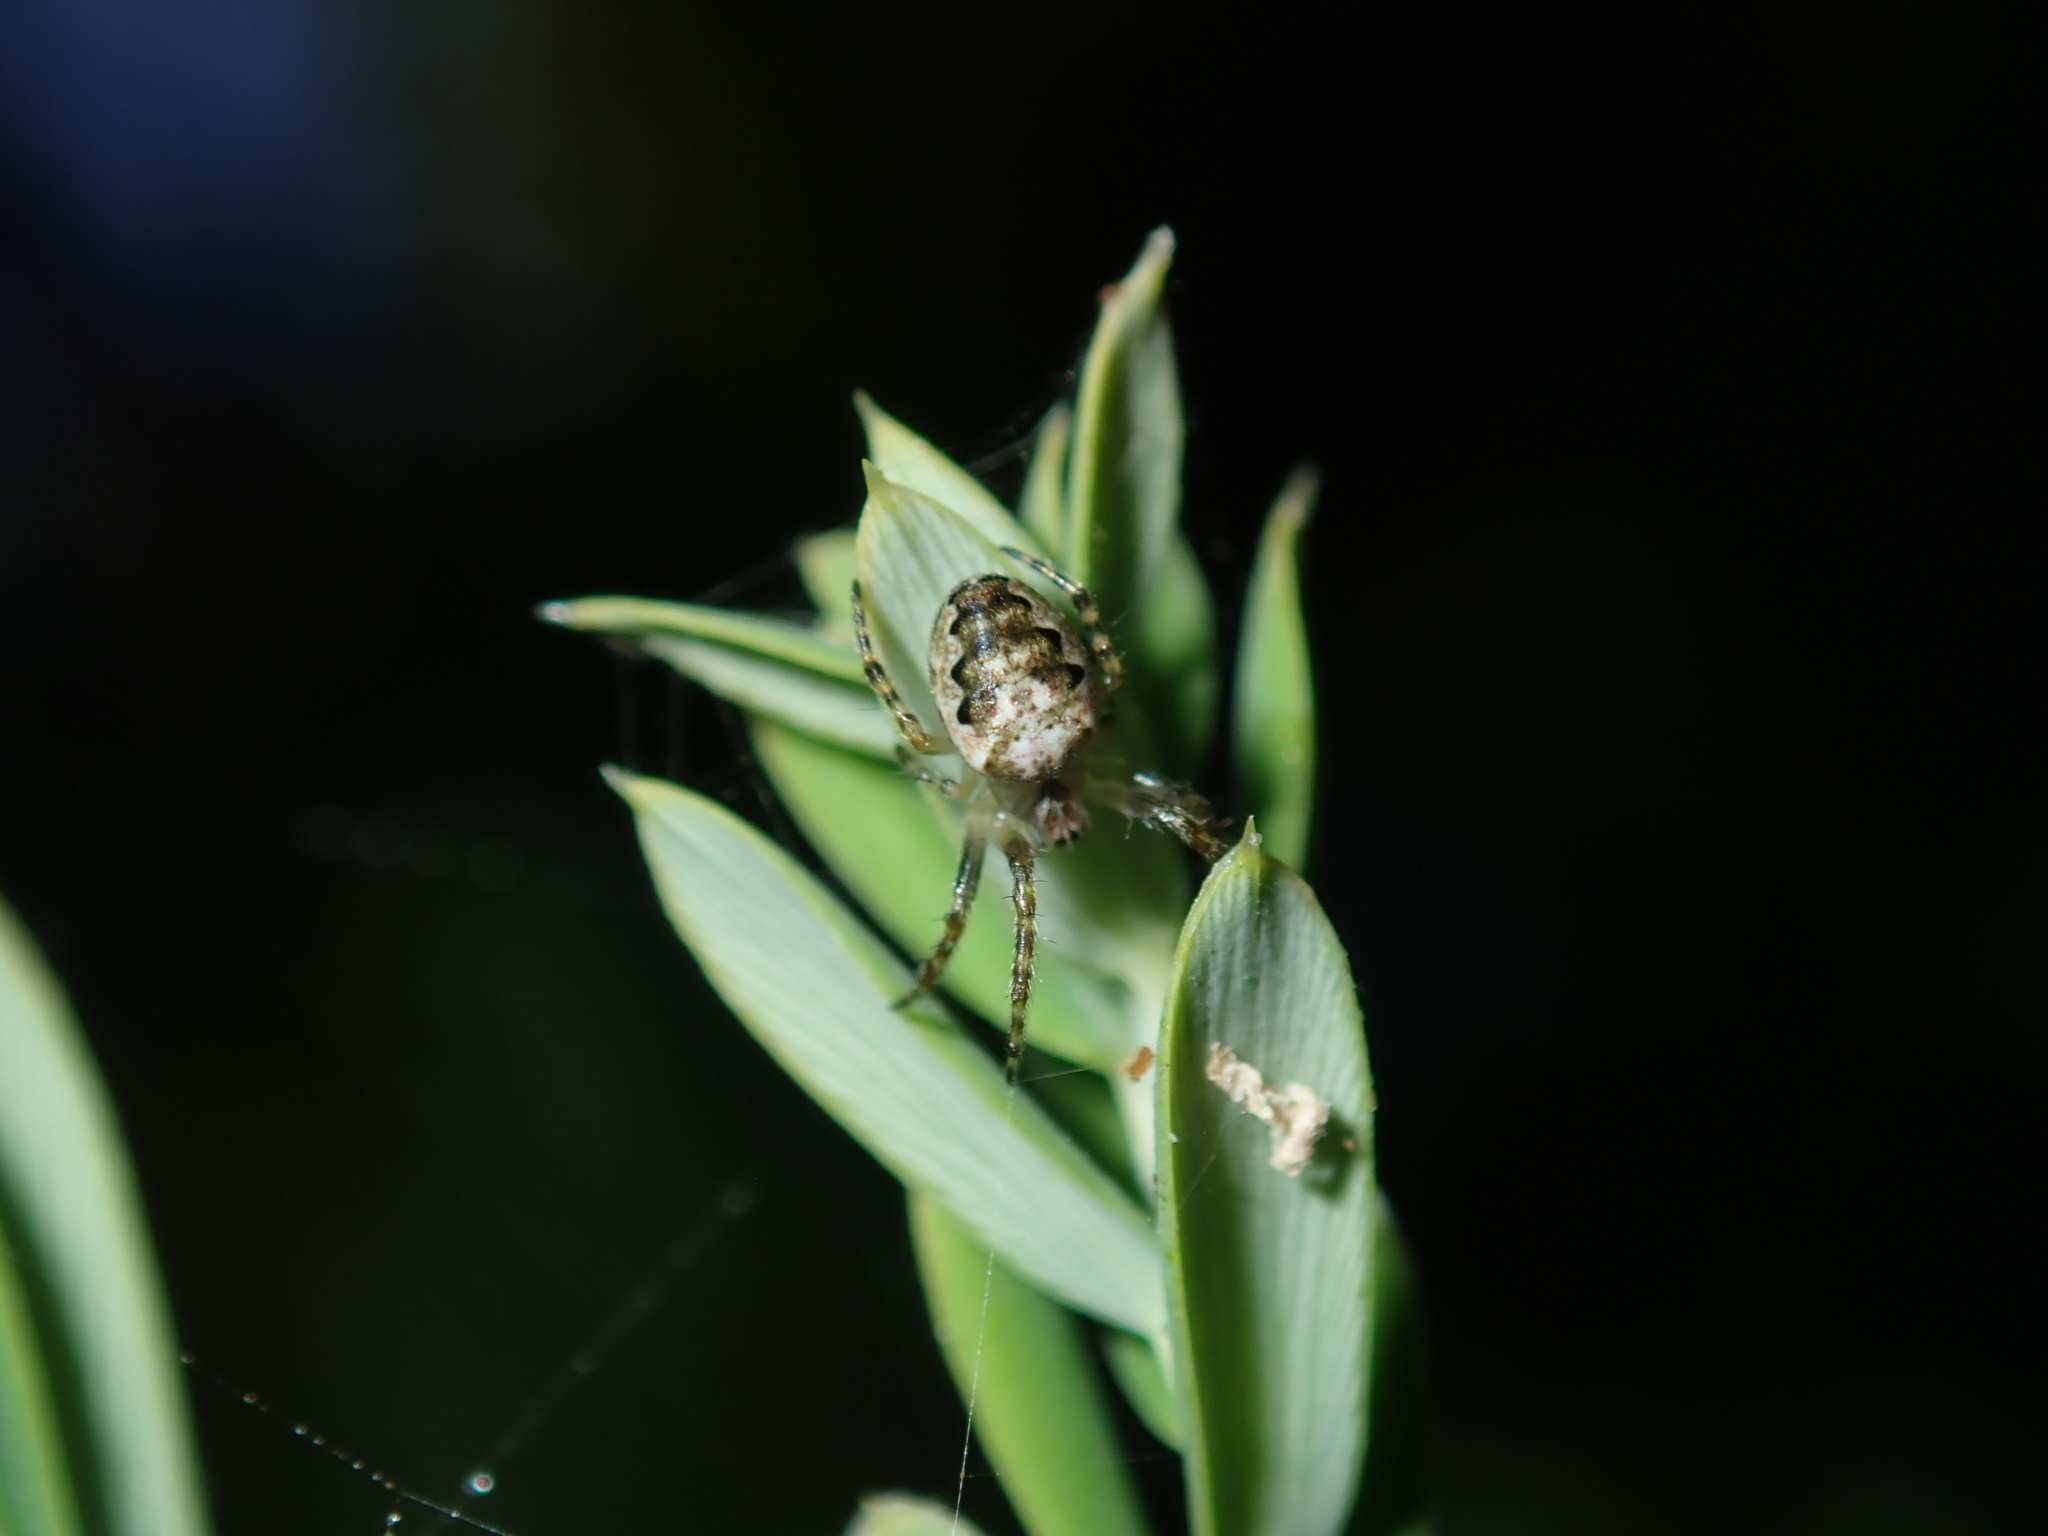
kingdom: Animalia
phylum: Arthropoda
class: Arachnida
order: Araneae
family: Araneidae
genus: Plebs
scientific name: Plebs eburnus
